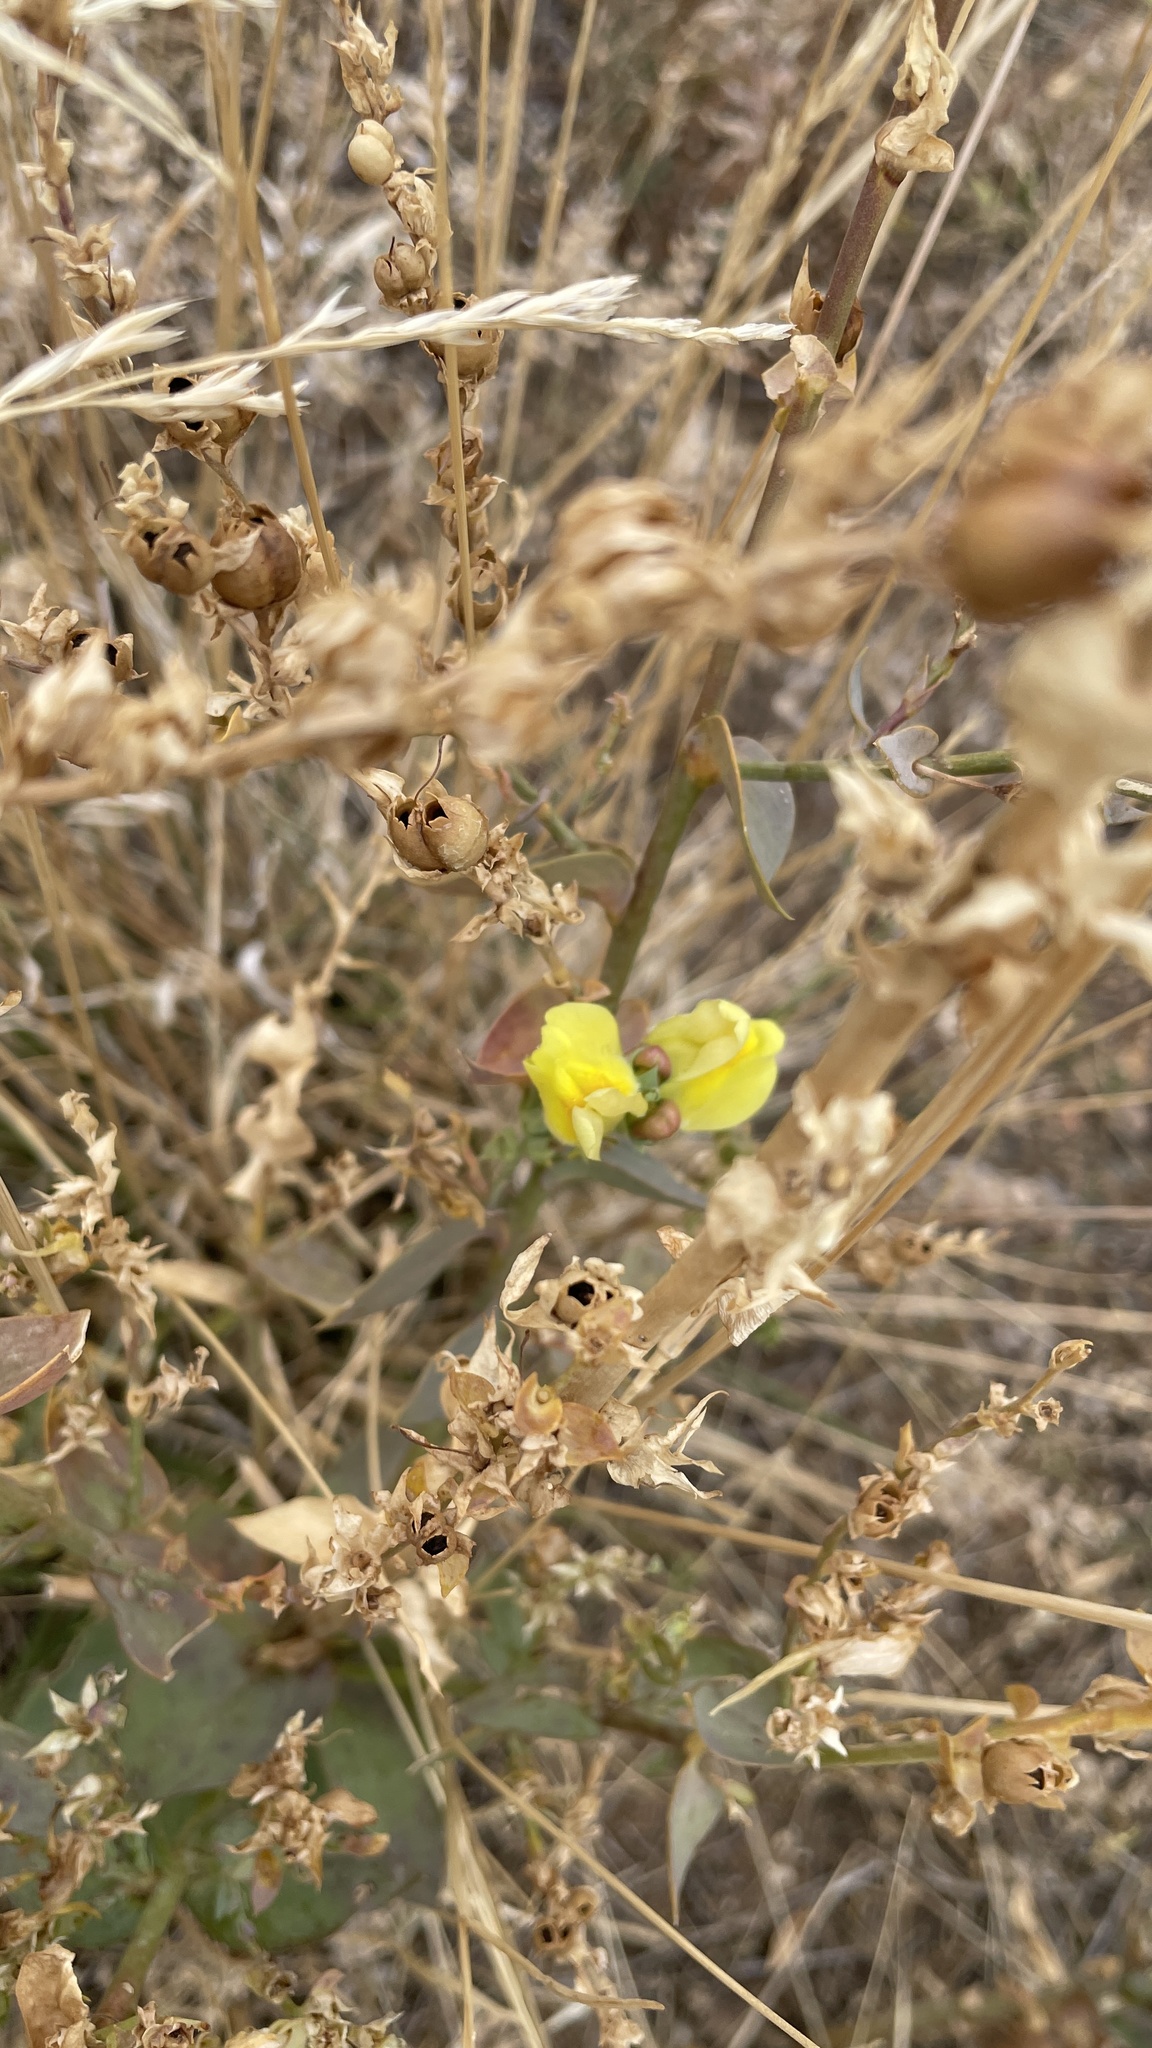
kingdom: Plantae
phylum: Tracheophyta
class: Magnoliopsida
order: Lamiales
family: Plantaginaceae
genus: Linaria
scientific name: Linaria dalmatica
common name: Dalmatian toadflax
